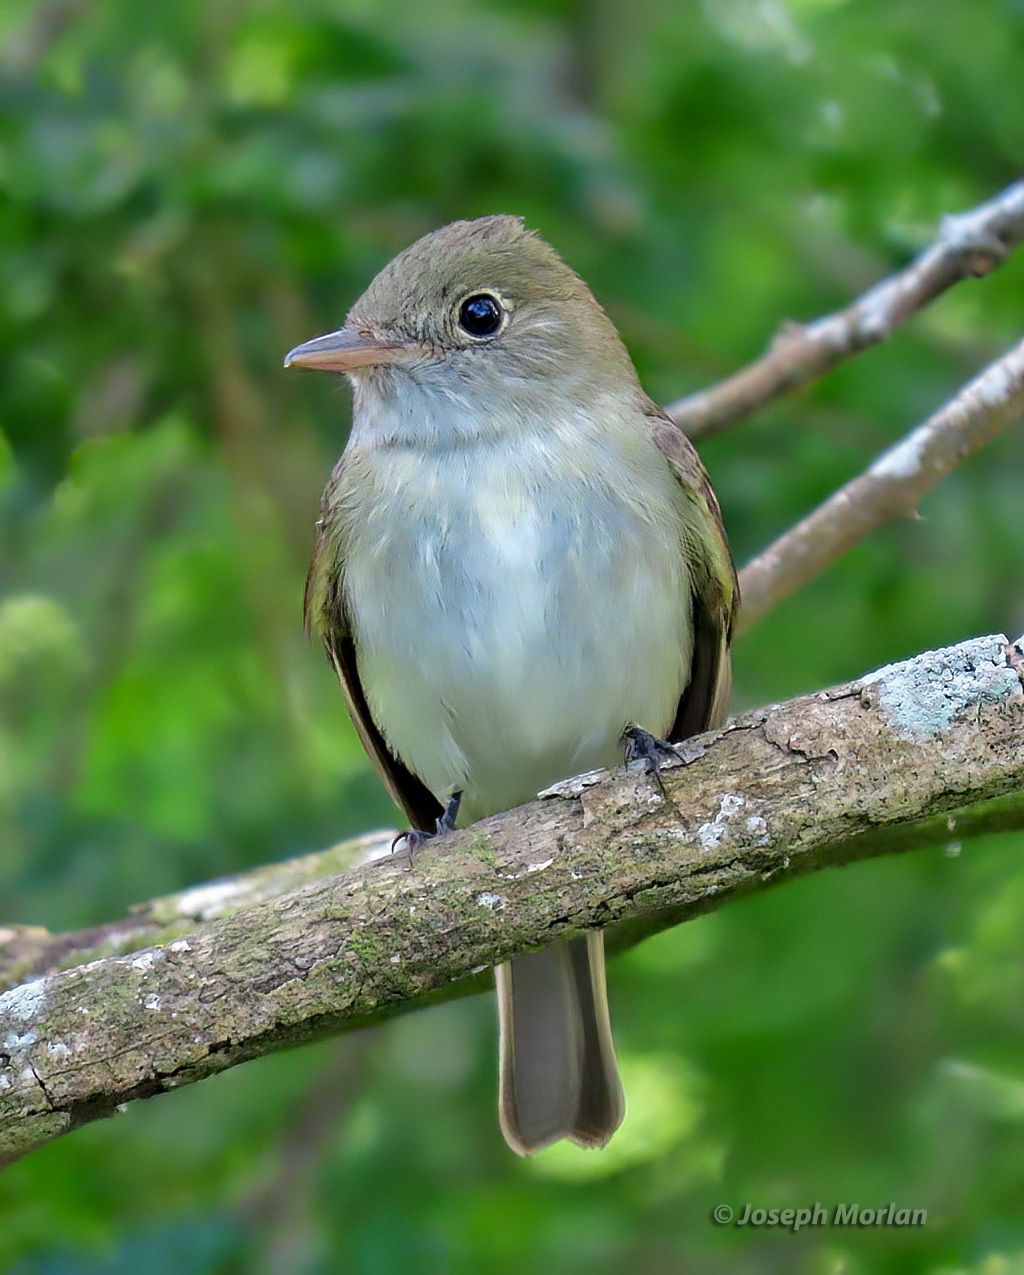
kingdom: Animalia
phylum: Chordata
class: Aves
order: Passeriformes
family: Tyrannidae
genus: Empidonax
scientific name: Empidonax virescens
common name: Acadian flycatcher
